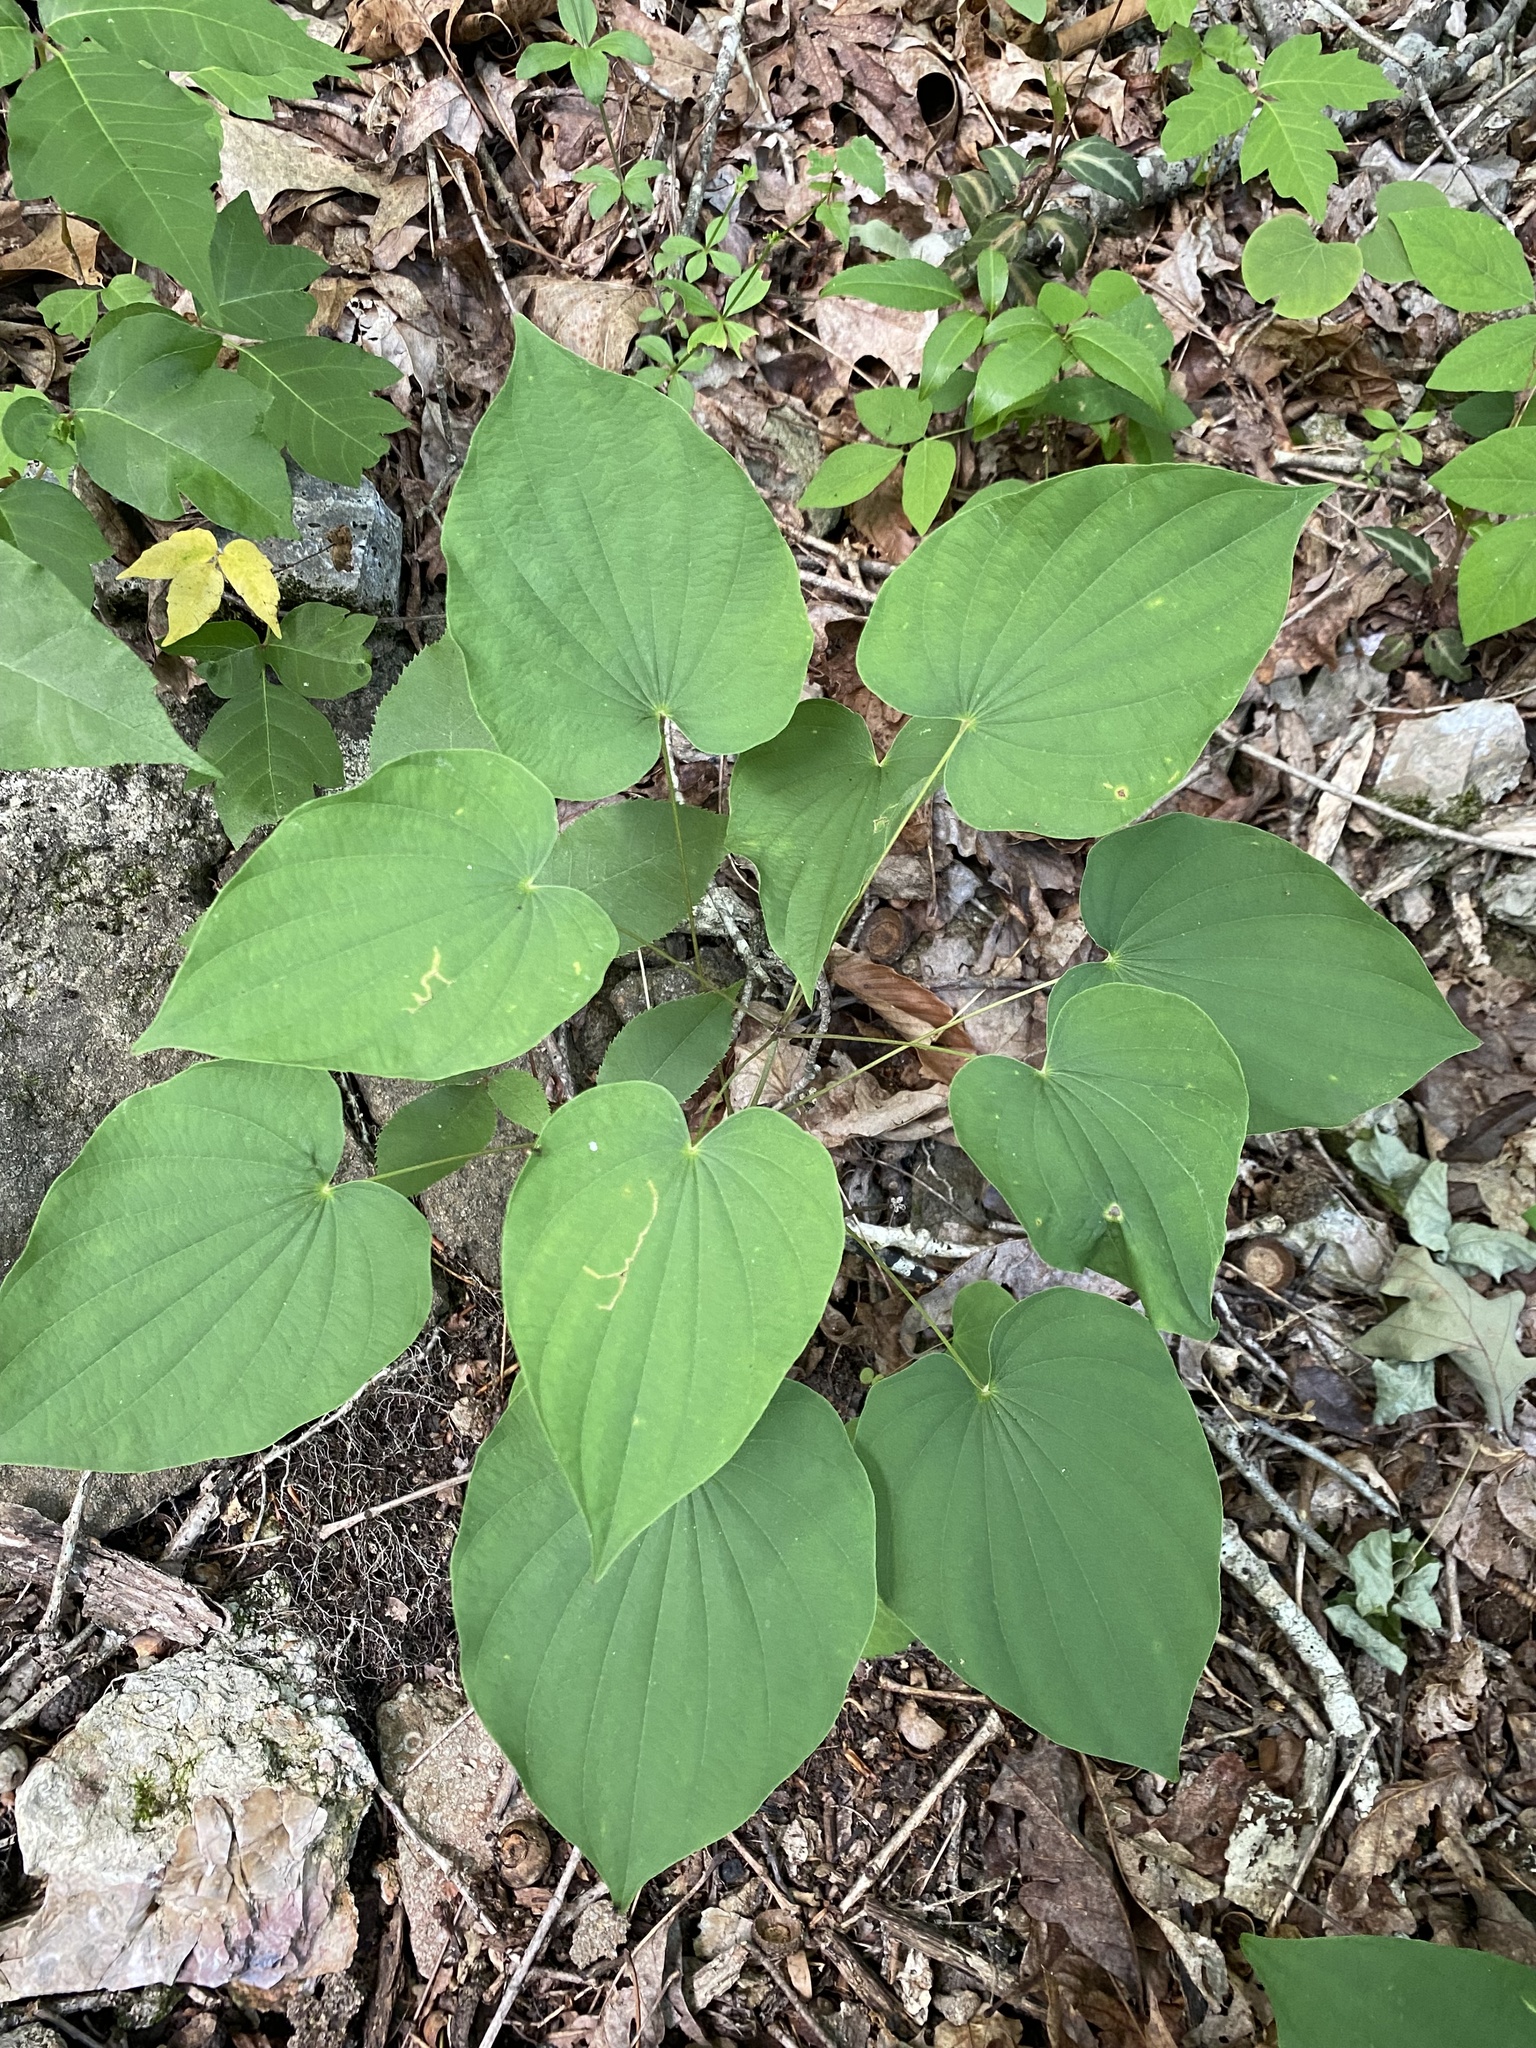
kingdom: Plantae
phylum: Tracheophyta
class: Liliopsida
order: Dioscoreales
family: Dioscoreaceae
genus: Dioscorea
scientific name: Dioscorea villosa
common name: Wild yam
